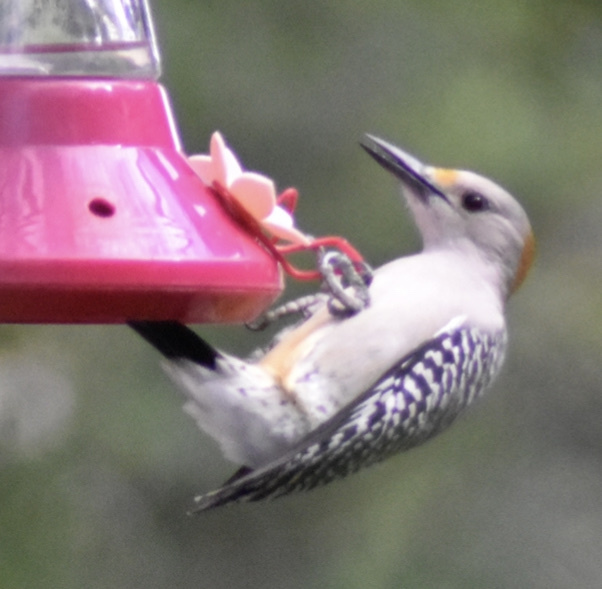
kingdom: Animalia
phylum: Chordata
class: Aves
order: Piciformes
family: Picidae
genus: Melanerpes
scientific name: Melanerpes aurifrons
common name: Golden-fronted woodpecker
